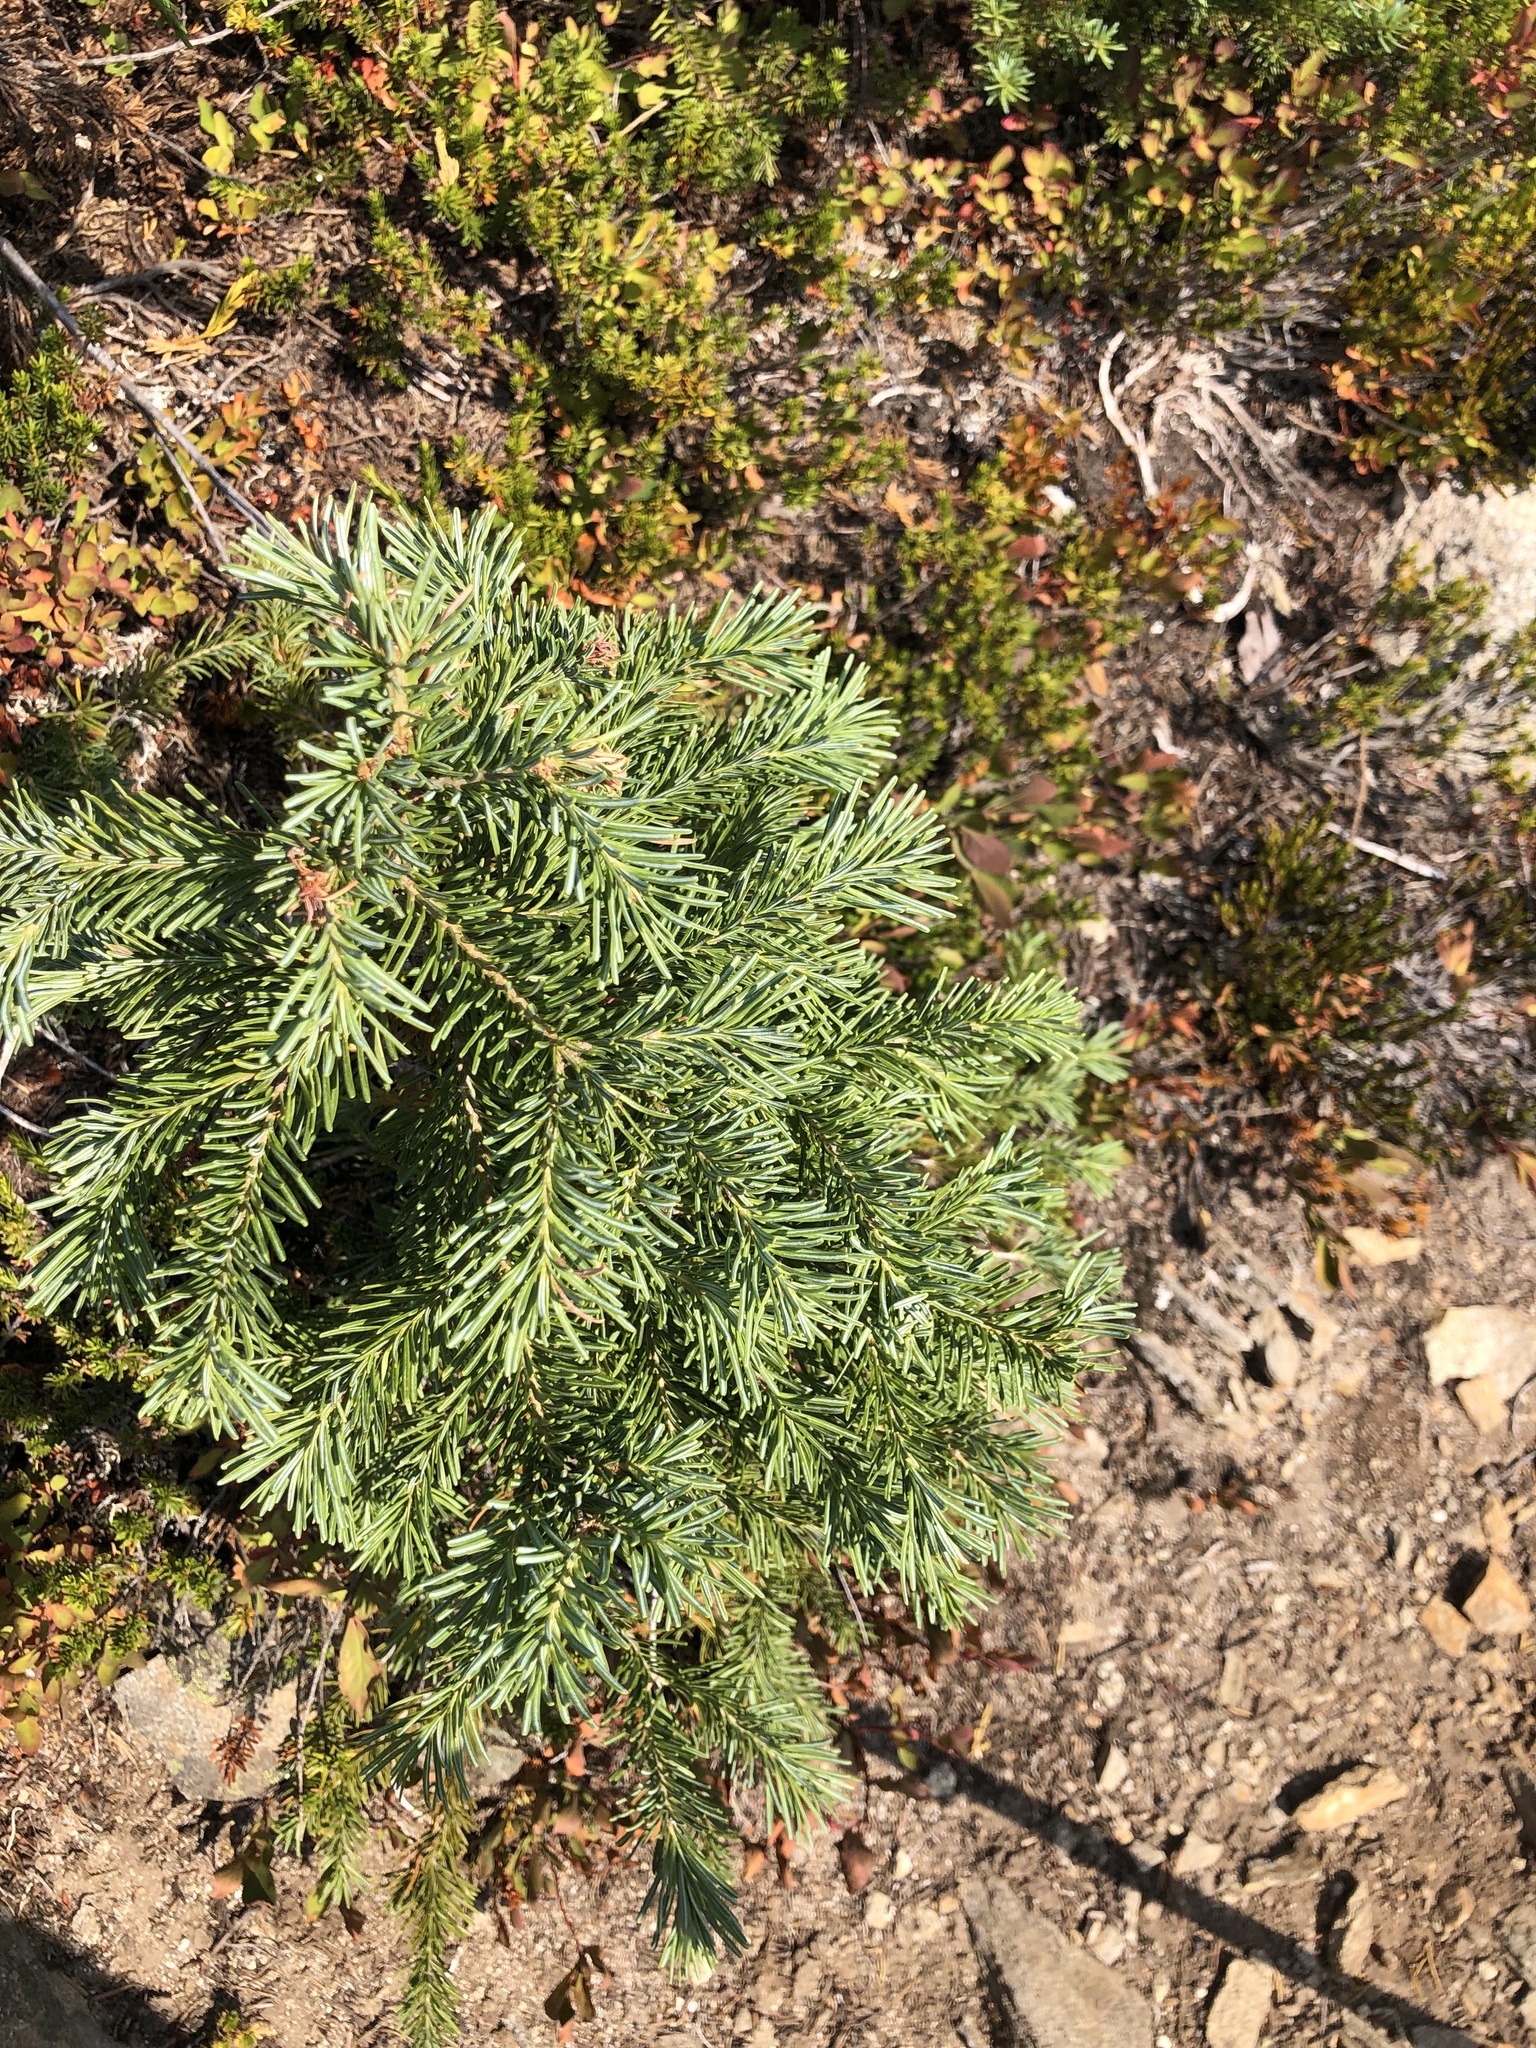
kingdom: Plantae
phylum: Tracheophyta
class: Pinopsida
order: Pinales
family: Pinaceae
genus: Abies
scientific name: Abies lasiocarpa
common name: Subalpine fir
